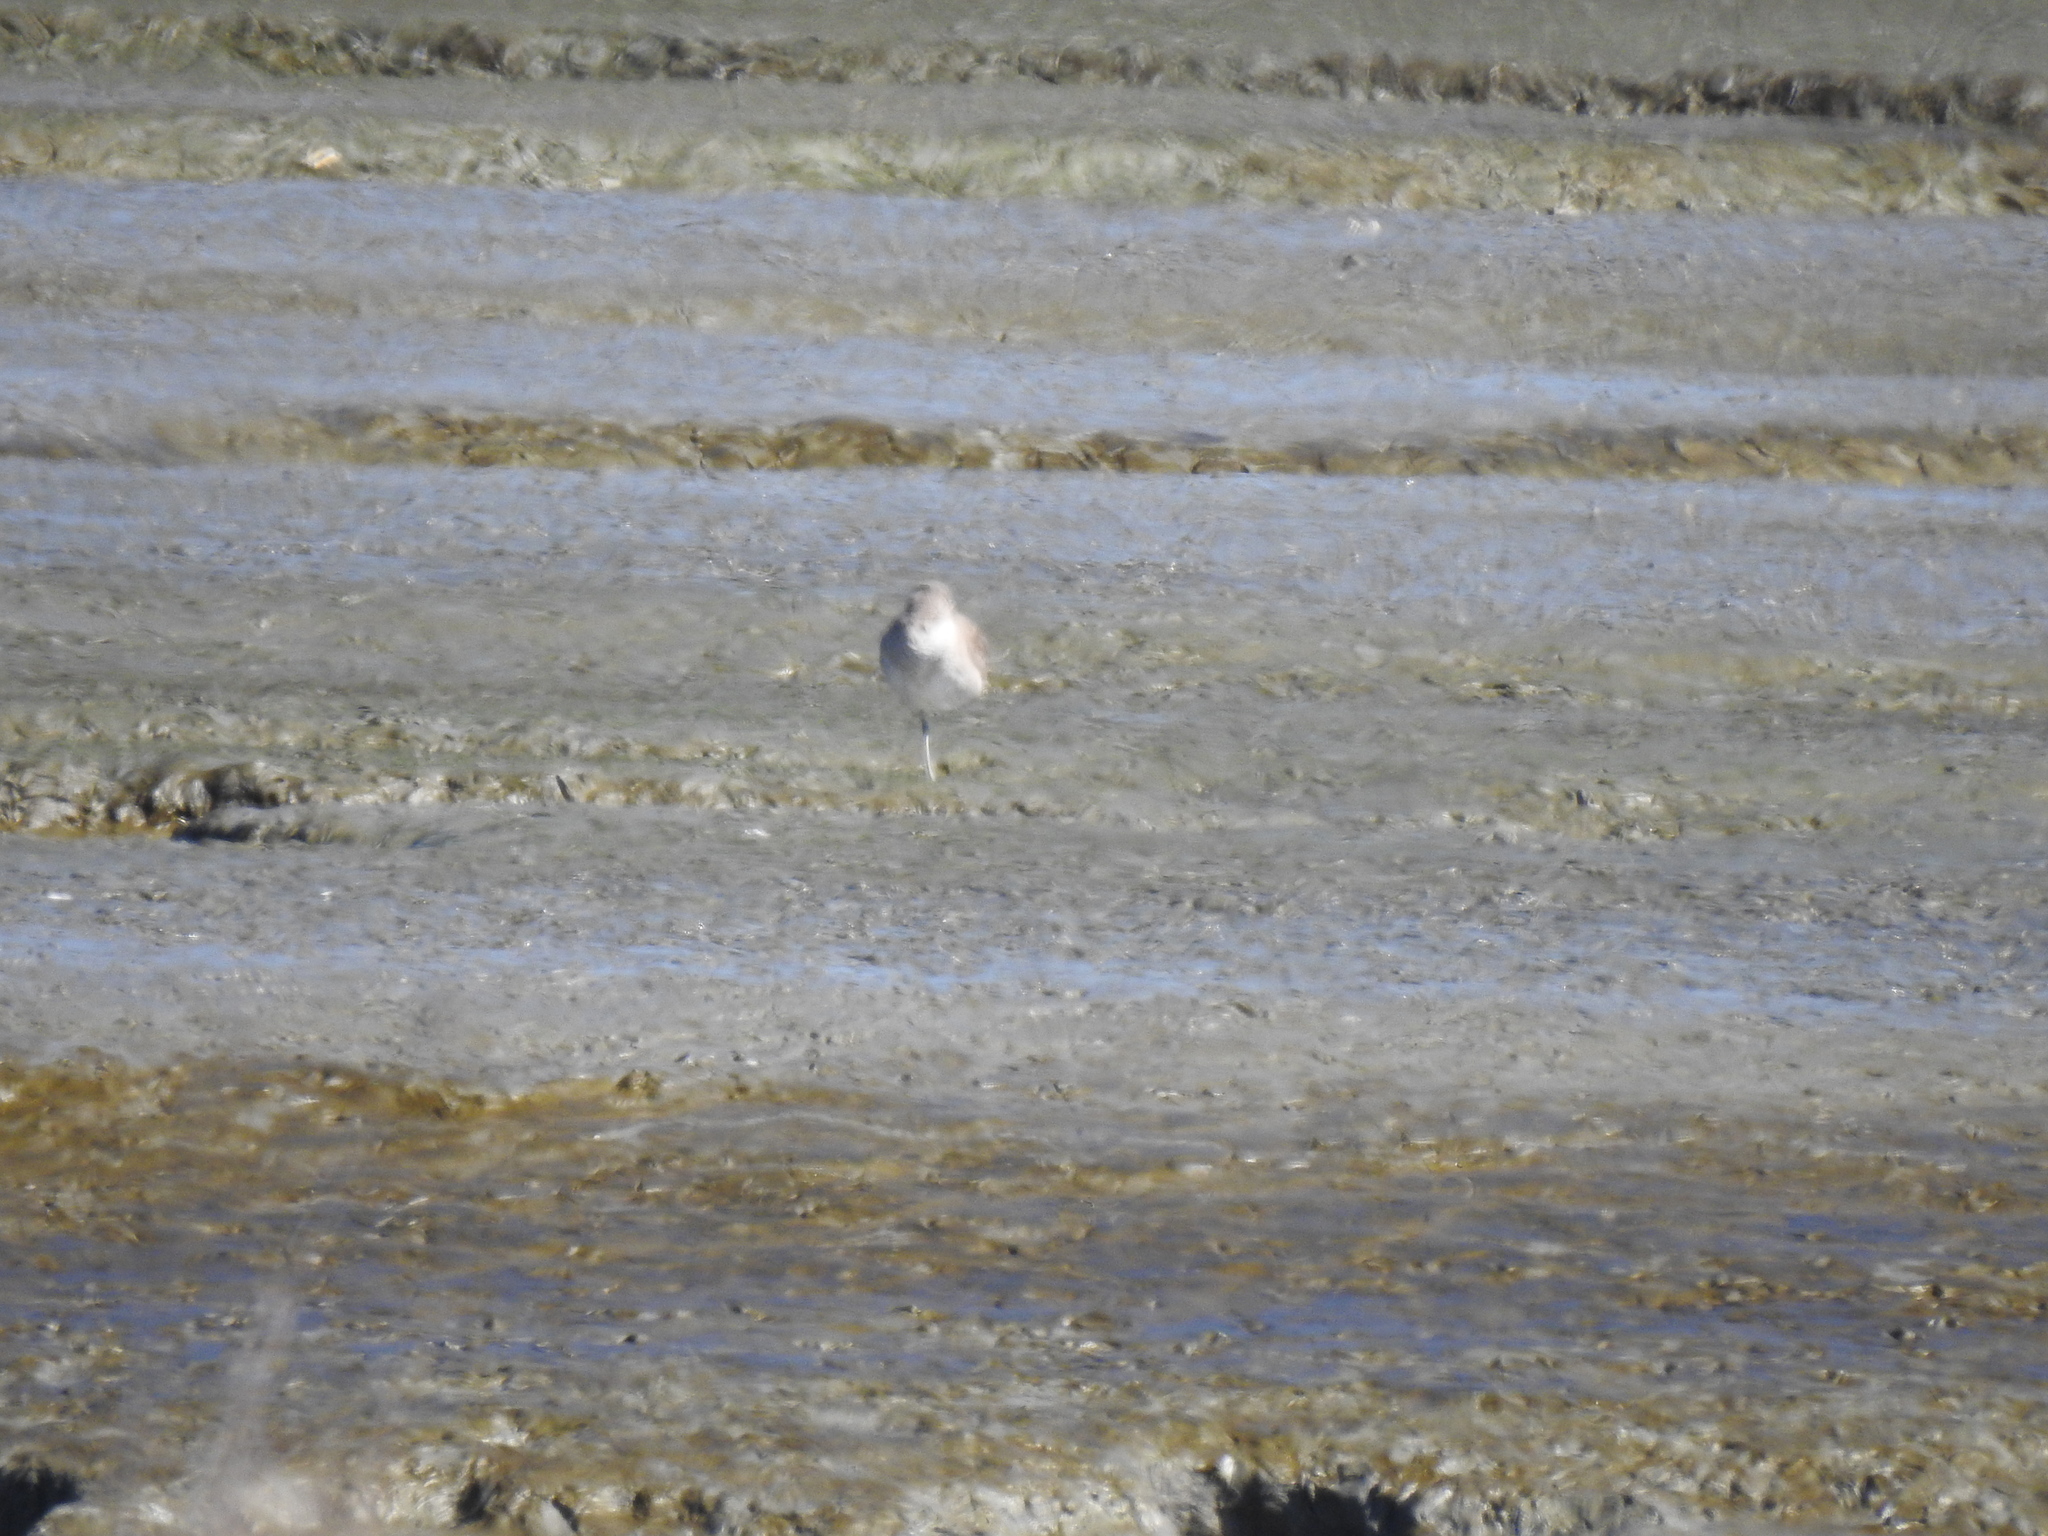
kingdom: Animalia
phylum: Chordata
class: Aves
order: Charadriiformes
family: Scolopacidae
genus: Tringa
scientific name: Tringa semipalmata
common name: Willet
